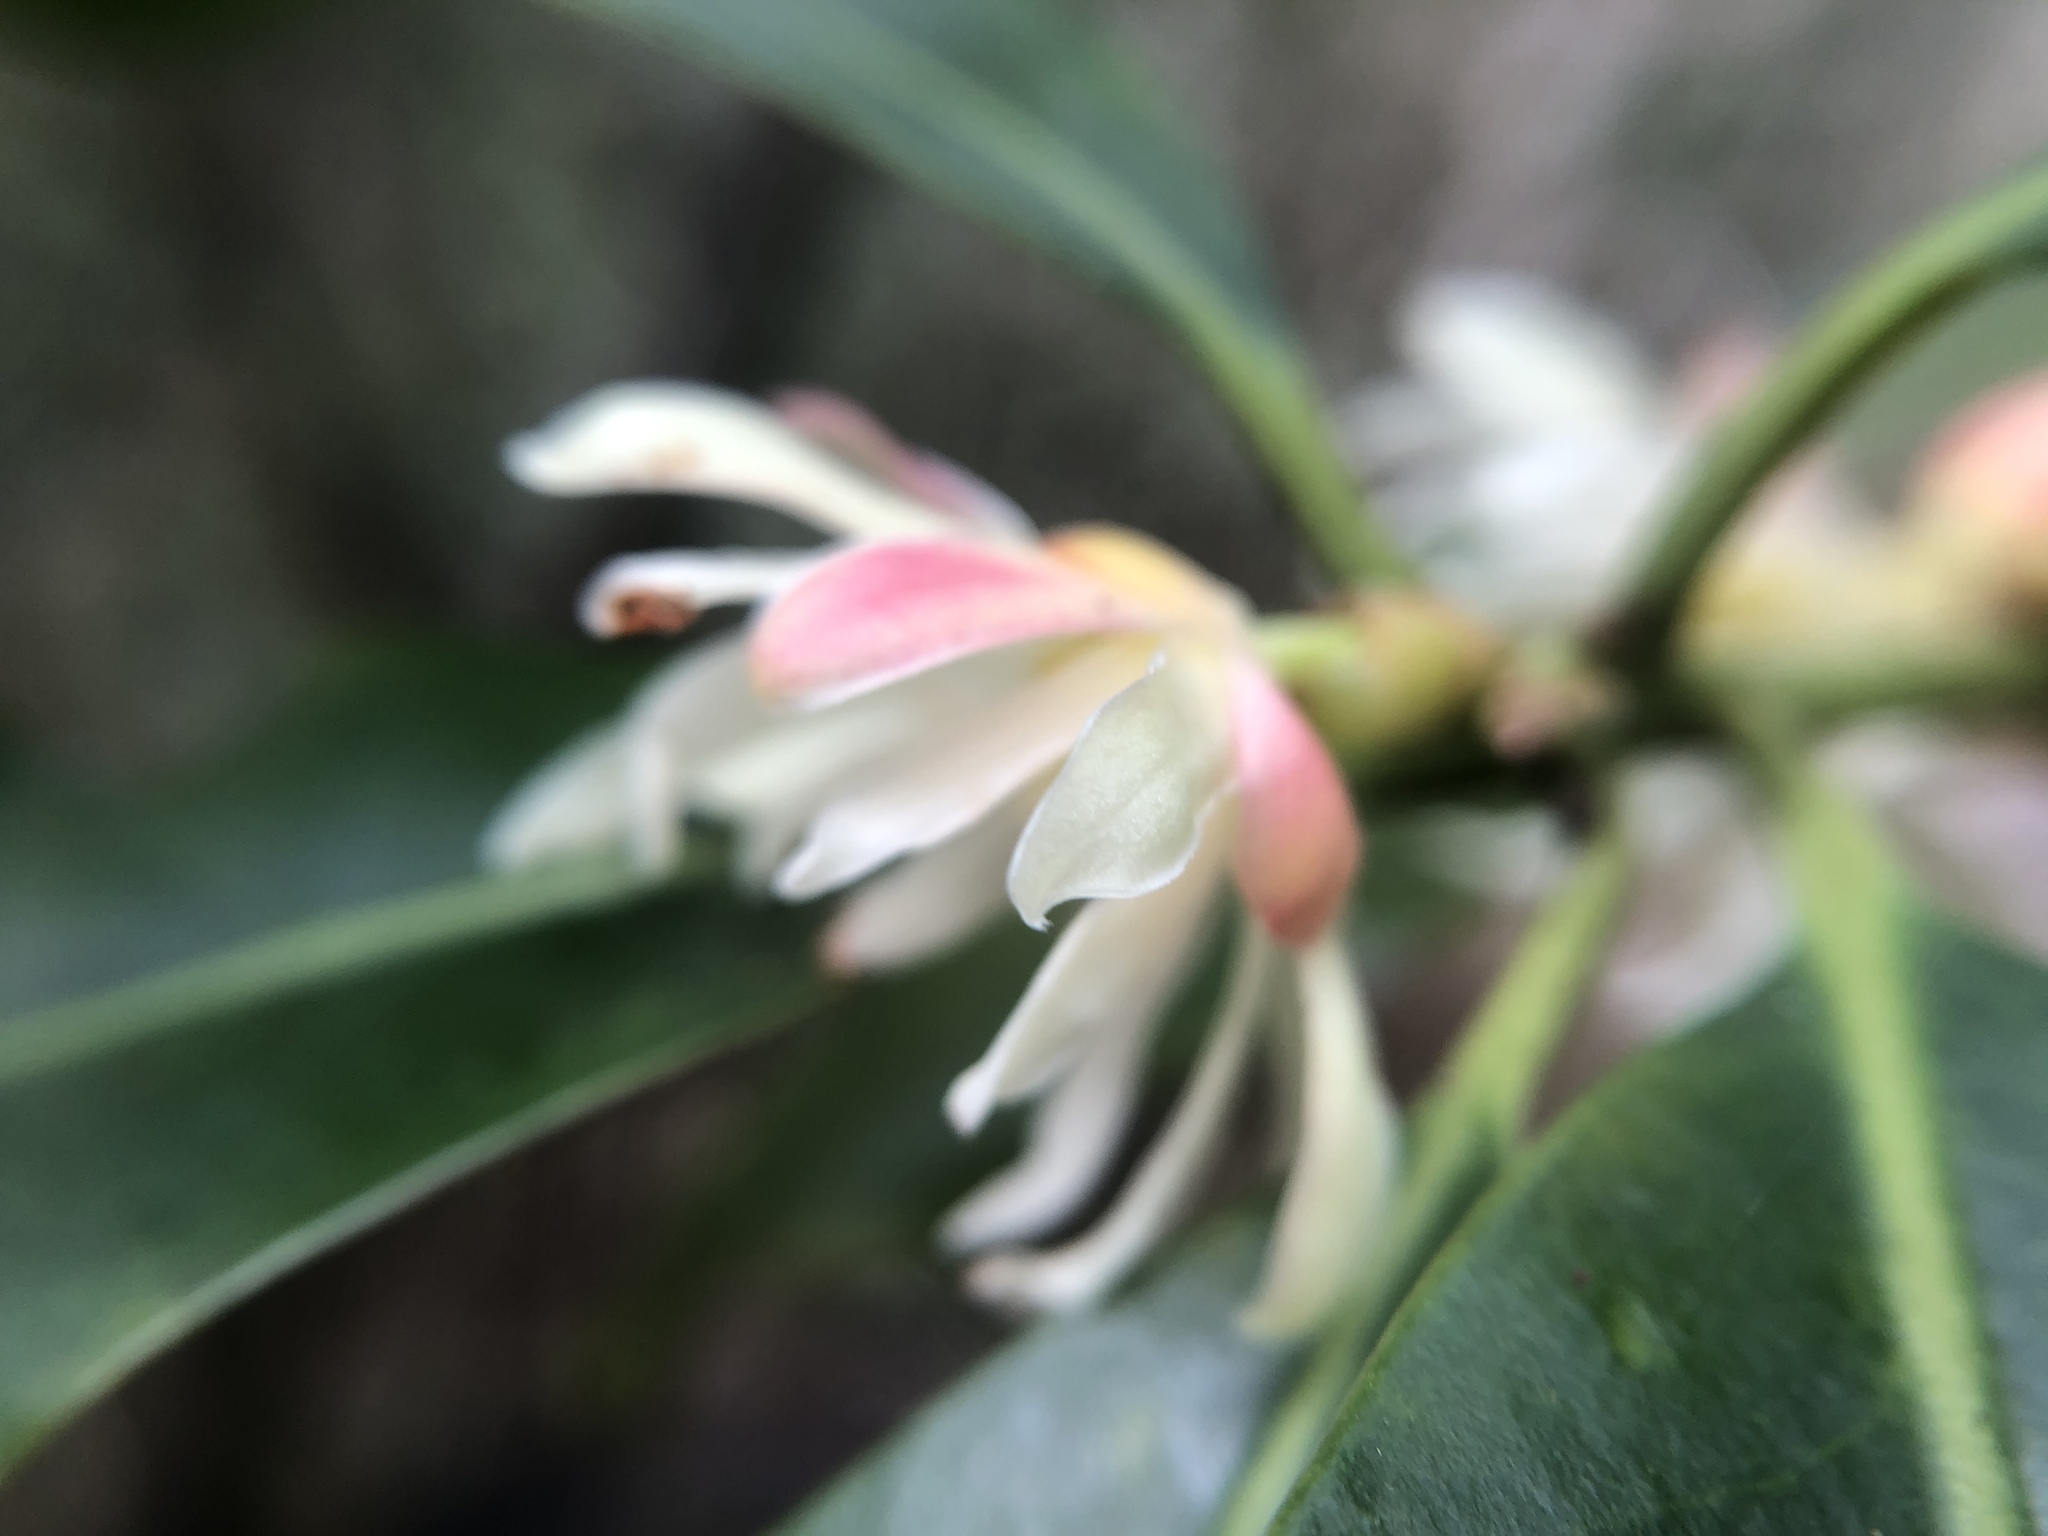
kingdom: Plantae
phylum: Tracheophyta
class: Magnoliopsida
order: Austrobaileyales
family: Schisandraceae
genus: Illicium
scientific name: Illicium anisatum
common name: Sacred anisetree
